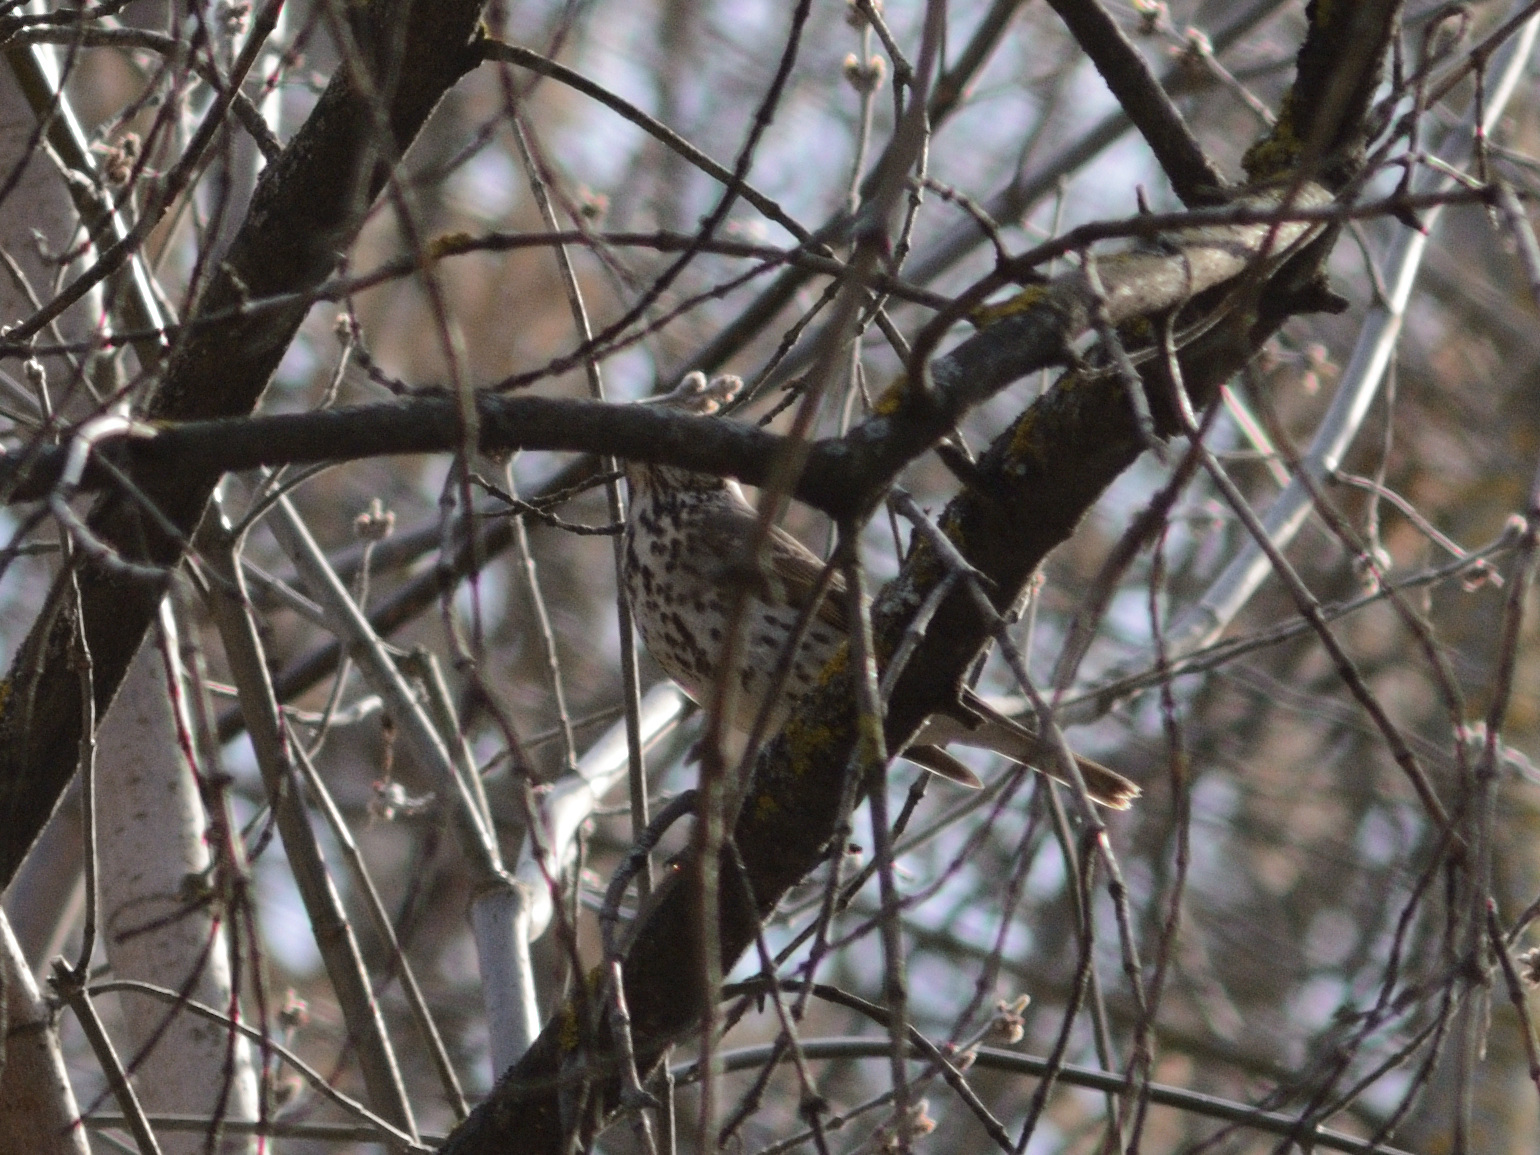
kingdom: Animalia
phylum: Chordata
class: Aves
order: Passeriformes
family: Turdidae
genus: Turdus
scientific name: Turdus philomelos
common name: Song thrush
